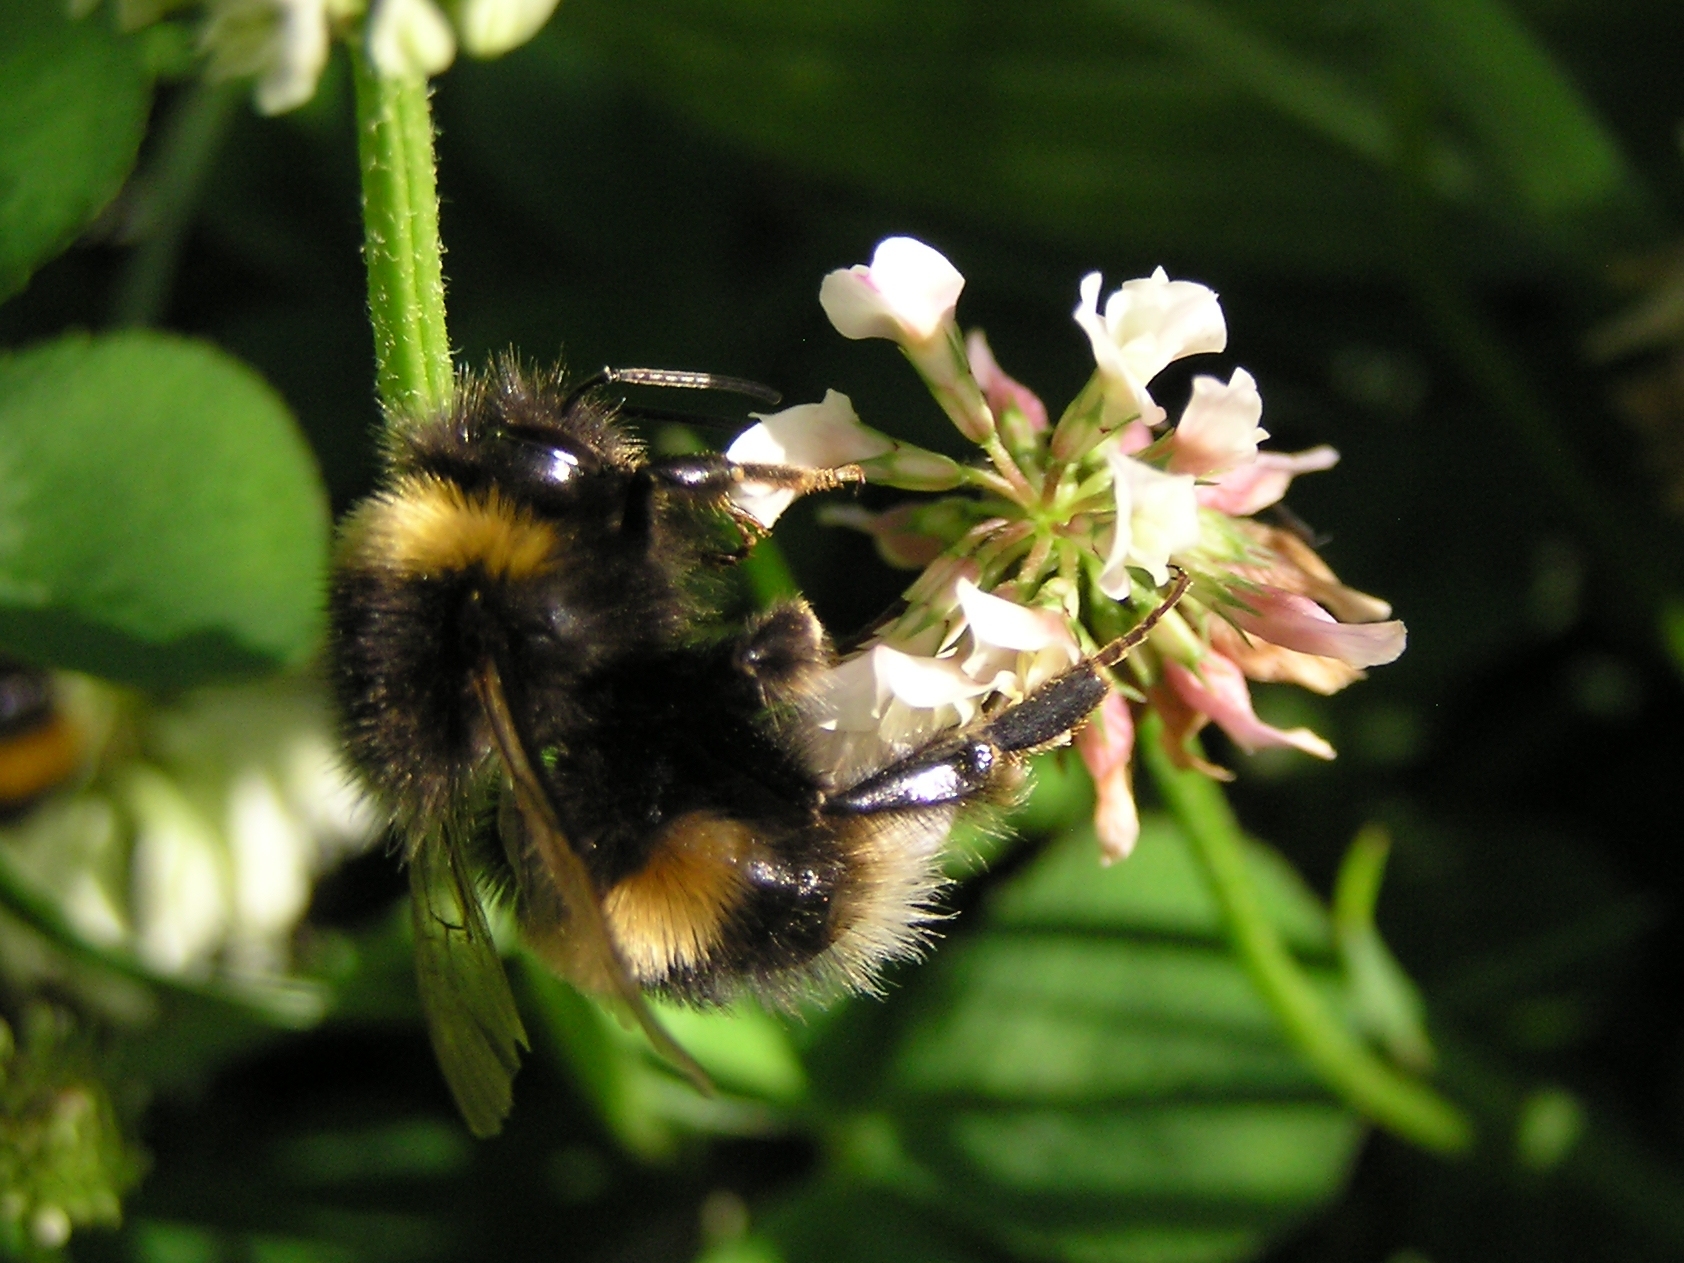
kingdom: Animalia
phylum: Arthropoda
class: Insecta
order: Hymenoptera
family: Apidae
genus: Bombus
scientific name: Bombus terrestris
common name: Buff-tailed bumblebee
